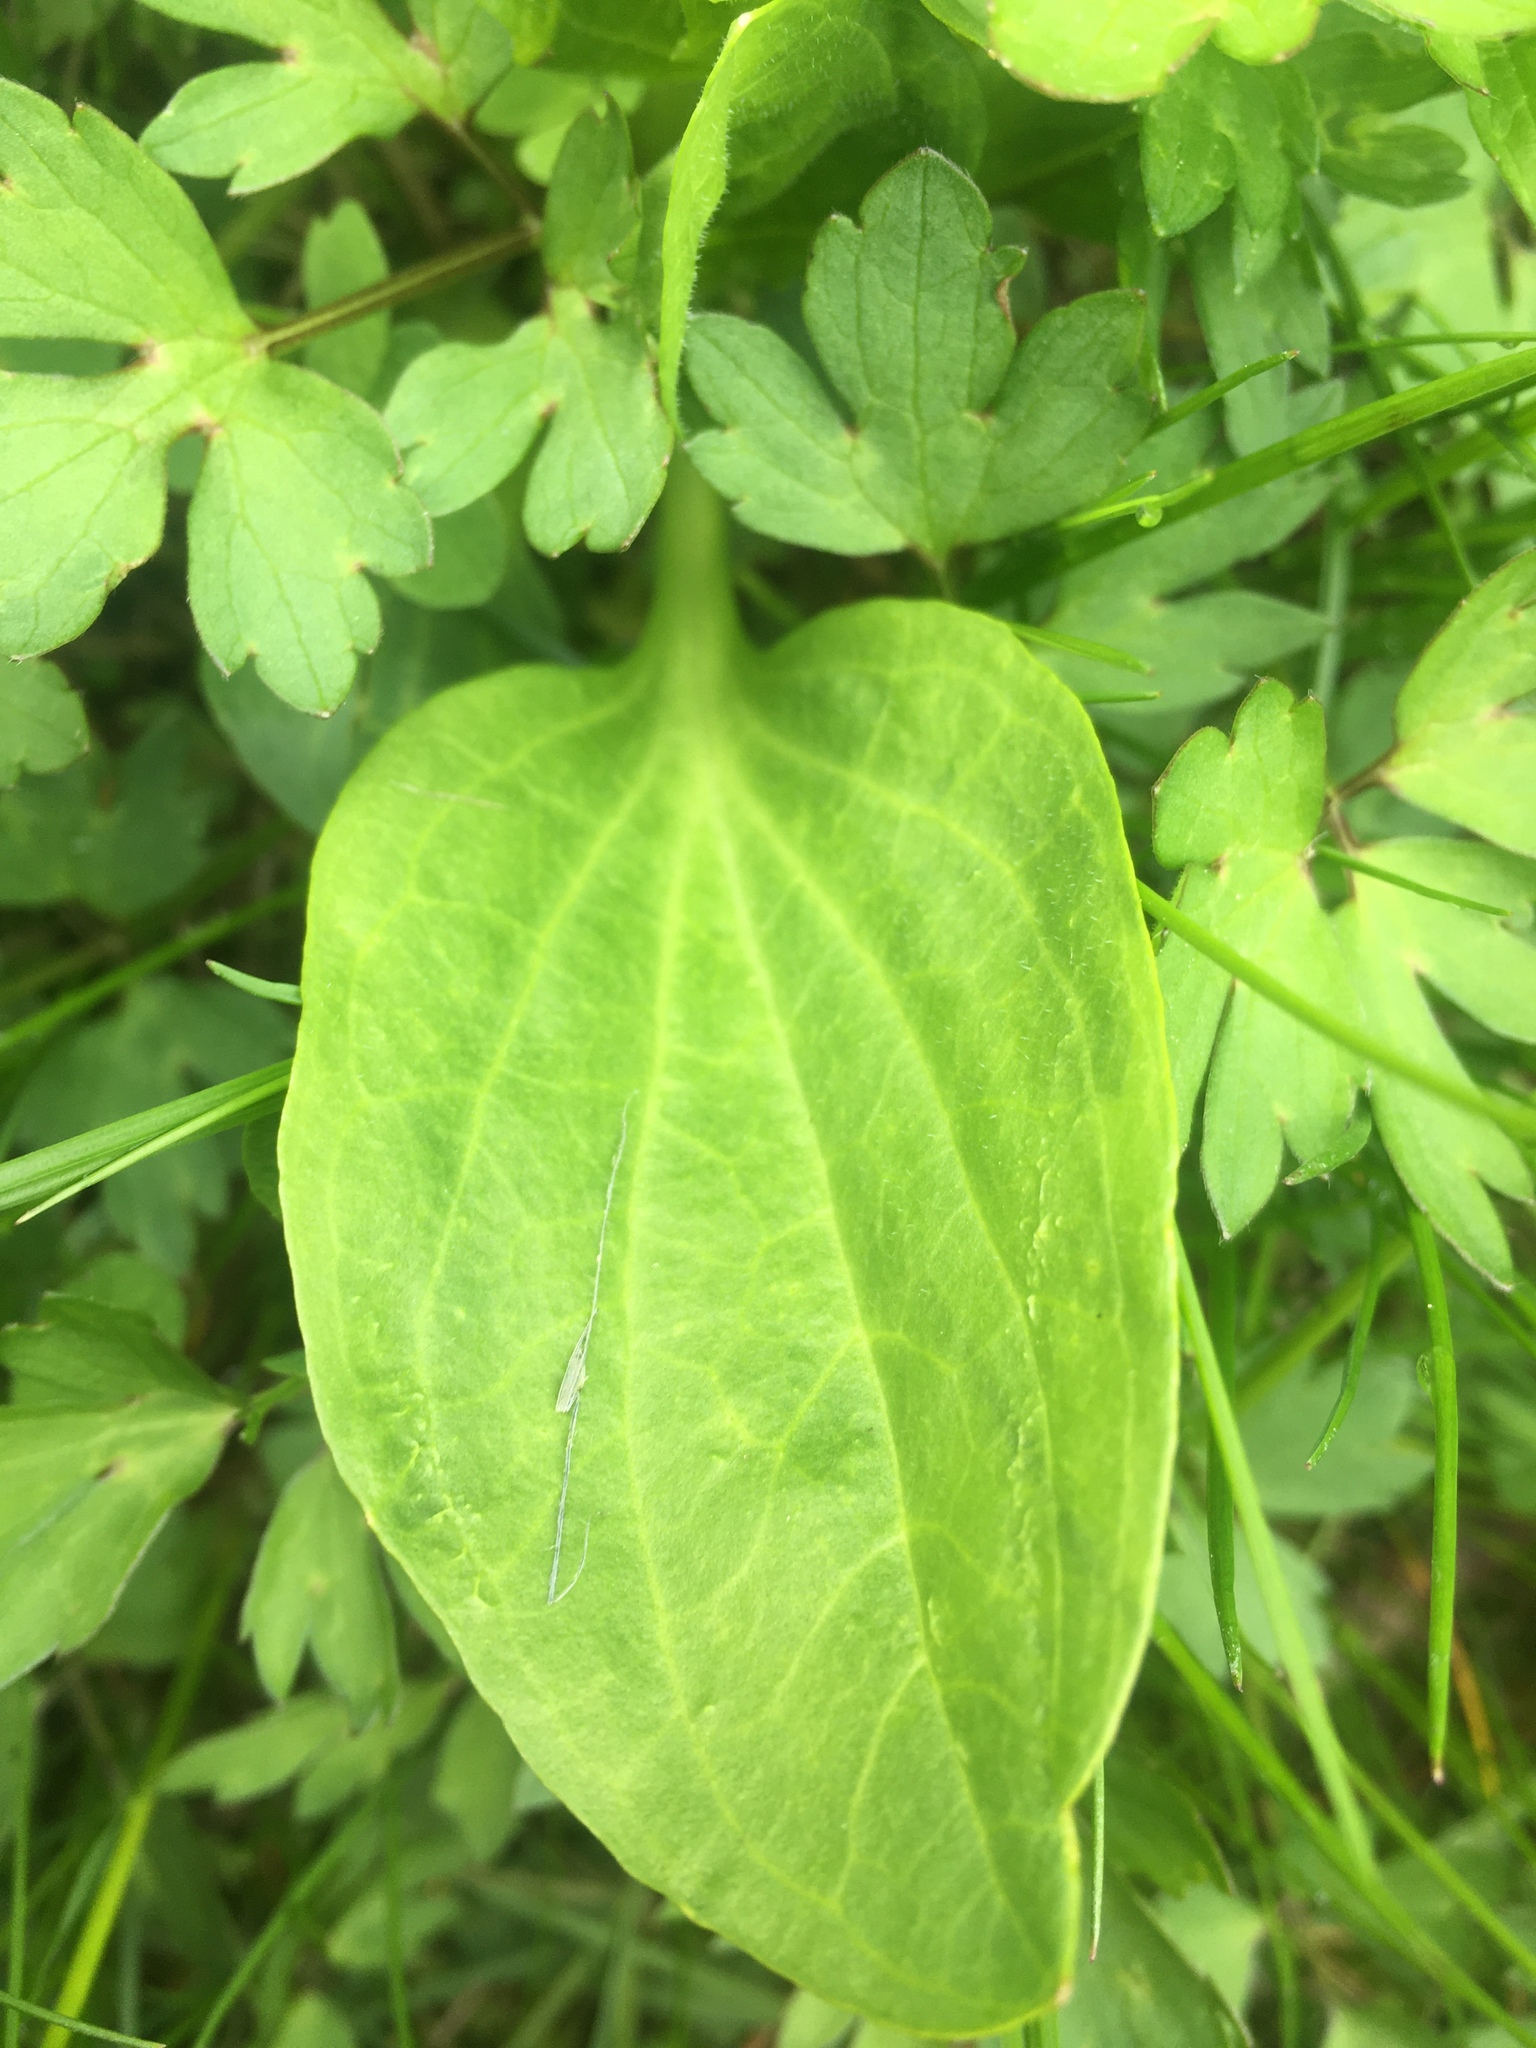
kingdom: Plantae
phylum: Tracheophyta
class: Magnoliopsida
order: Lamiales
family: Plantaginaceae
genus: Plantago
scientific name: Plantago major
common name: Common plantain
